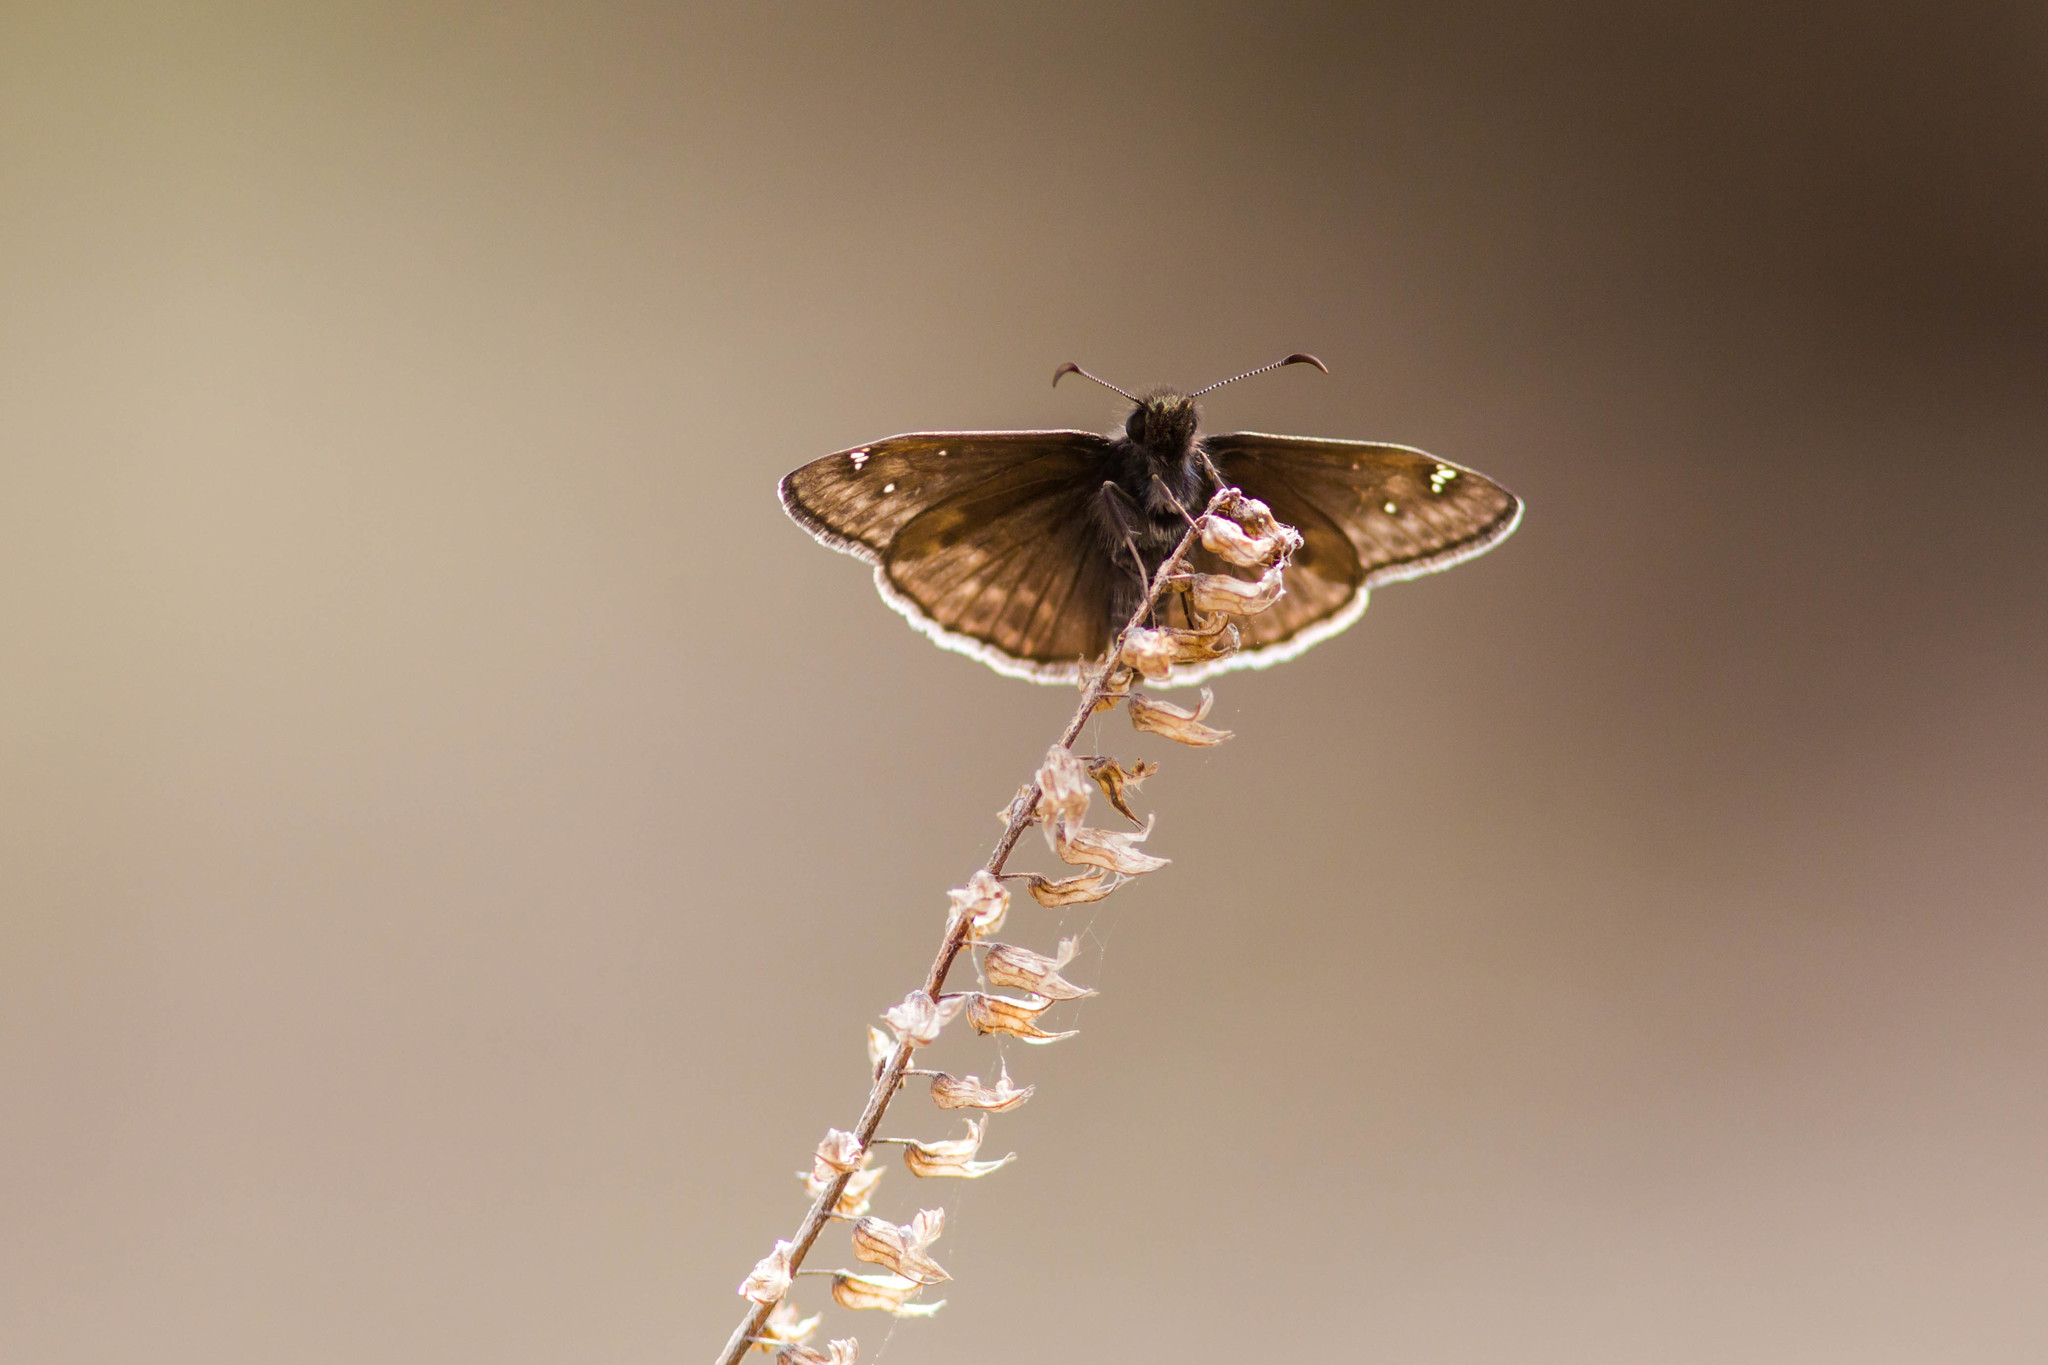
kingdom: Animalia
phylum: Arthropoda
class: Insecta
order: Lepidoptera
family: Hesperiidae
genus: Erynnis
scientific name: Erynnis juvenalis
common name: Juvenal's duskywing
